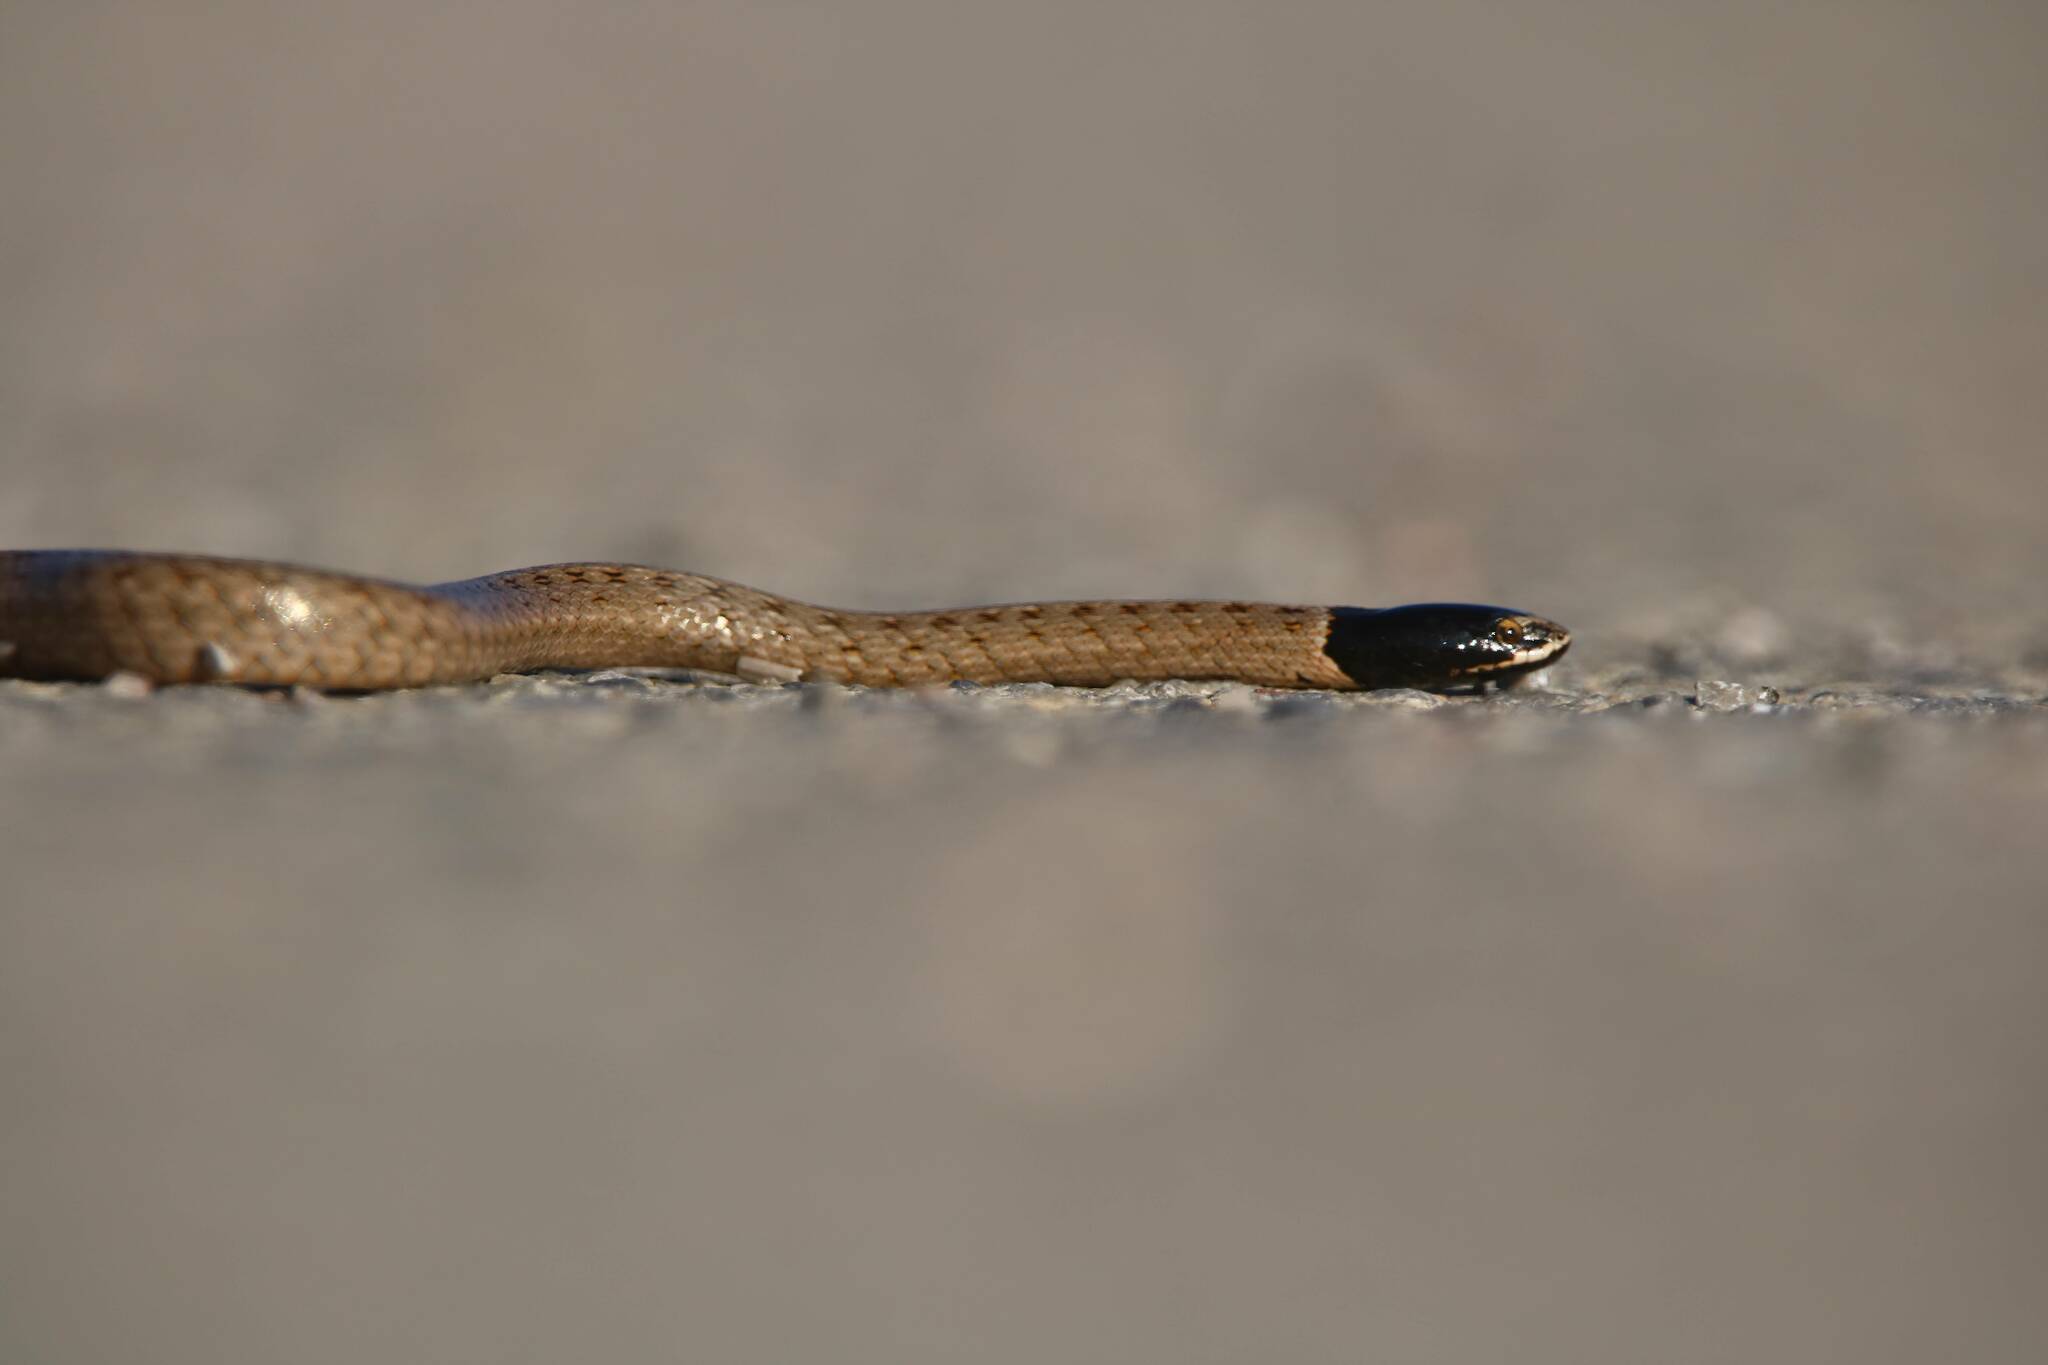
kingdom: Animalia
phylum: Chordata
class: Squamata
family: Colubridae
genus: Macroprotodon
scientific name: Macroprotodon mauritanicus
